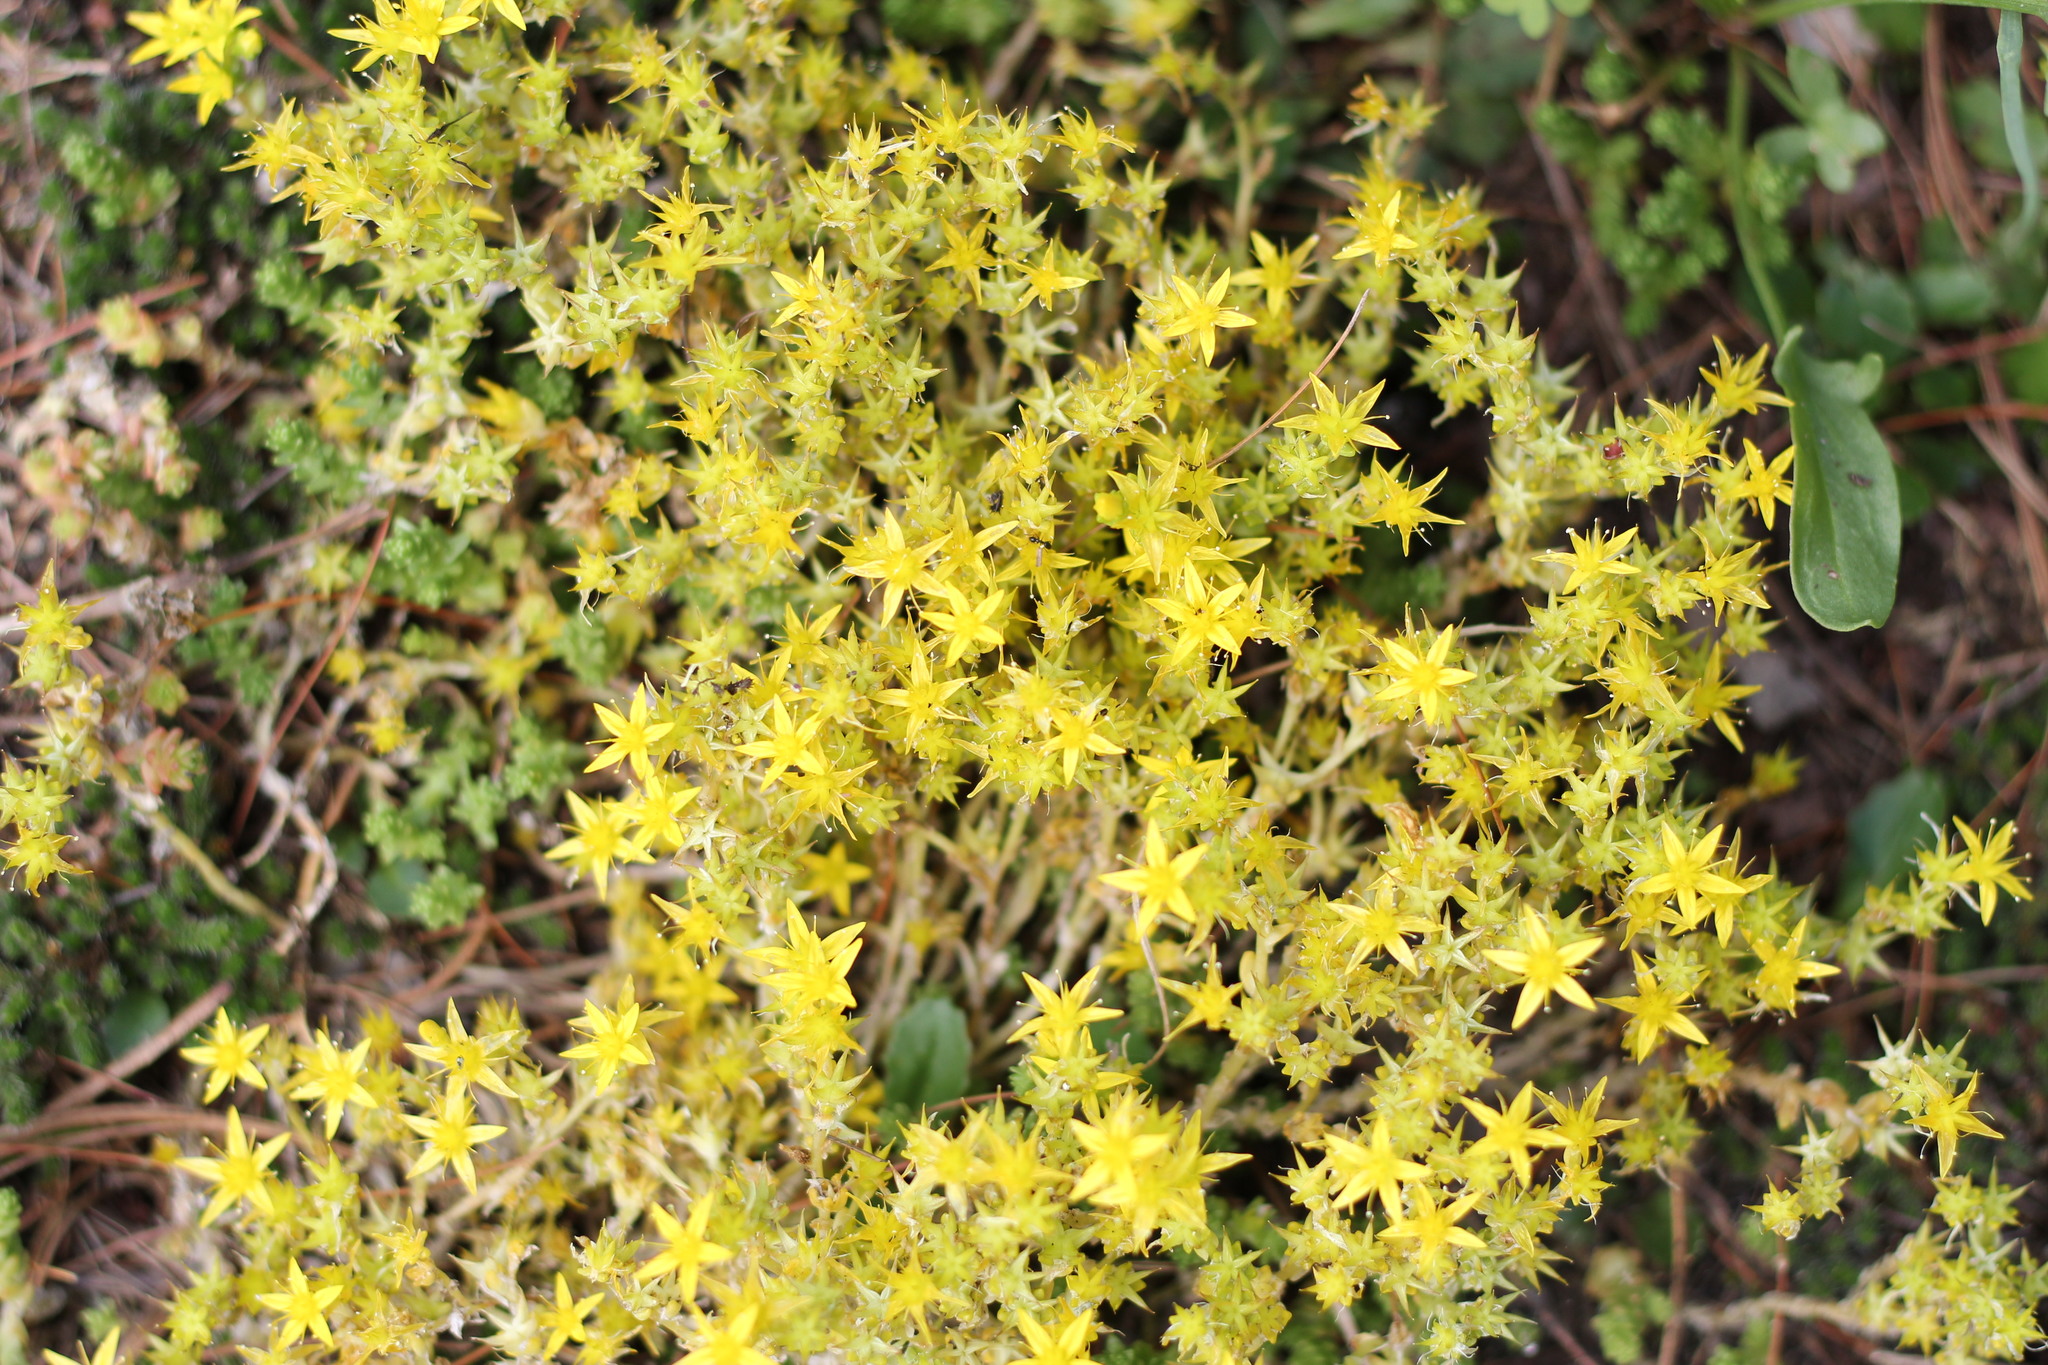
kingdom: Plantae
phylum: Tracheophyta
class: Magnoliopsida
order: Saxifragales
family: Crassulaceae
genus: Sedum
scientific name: Sedum acre
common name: Biting stonecrop
